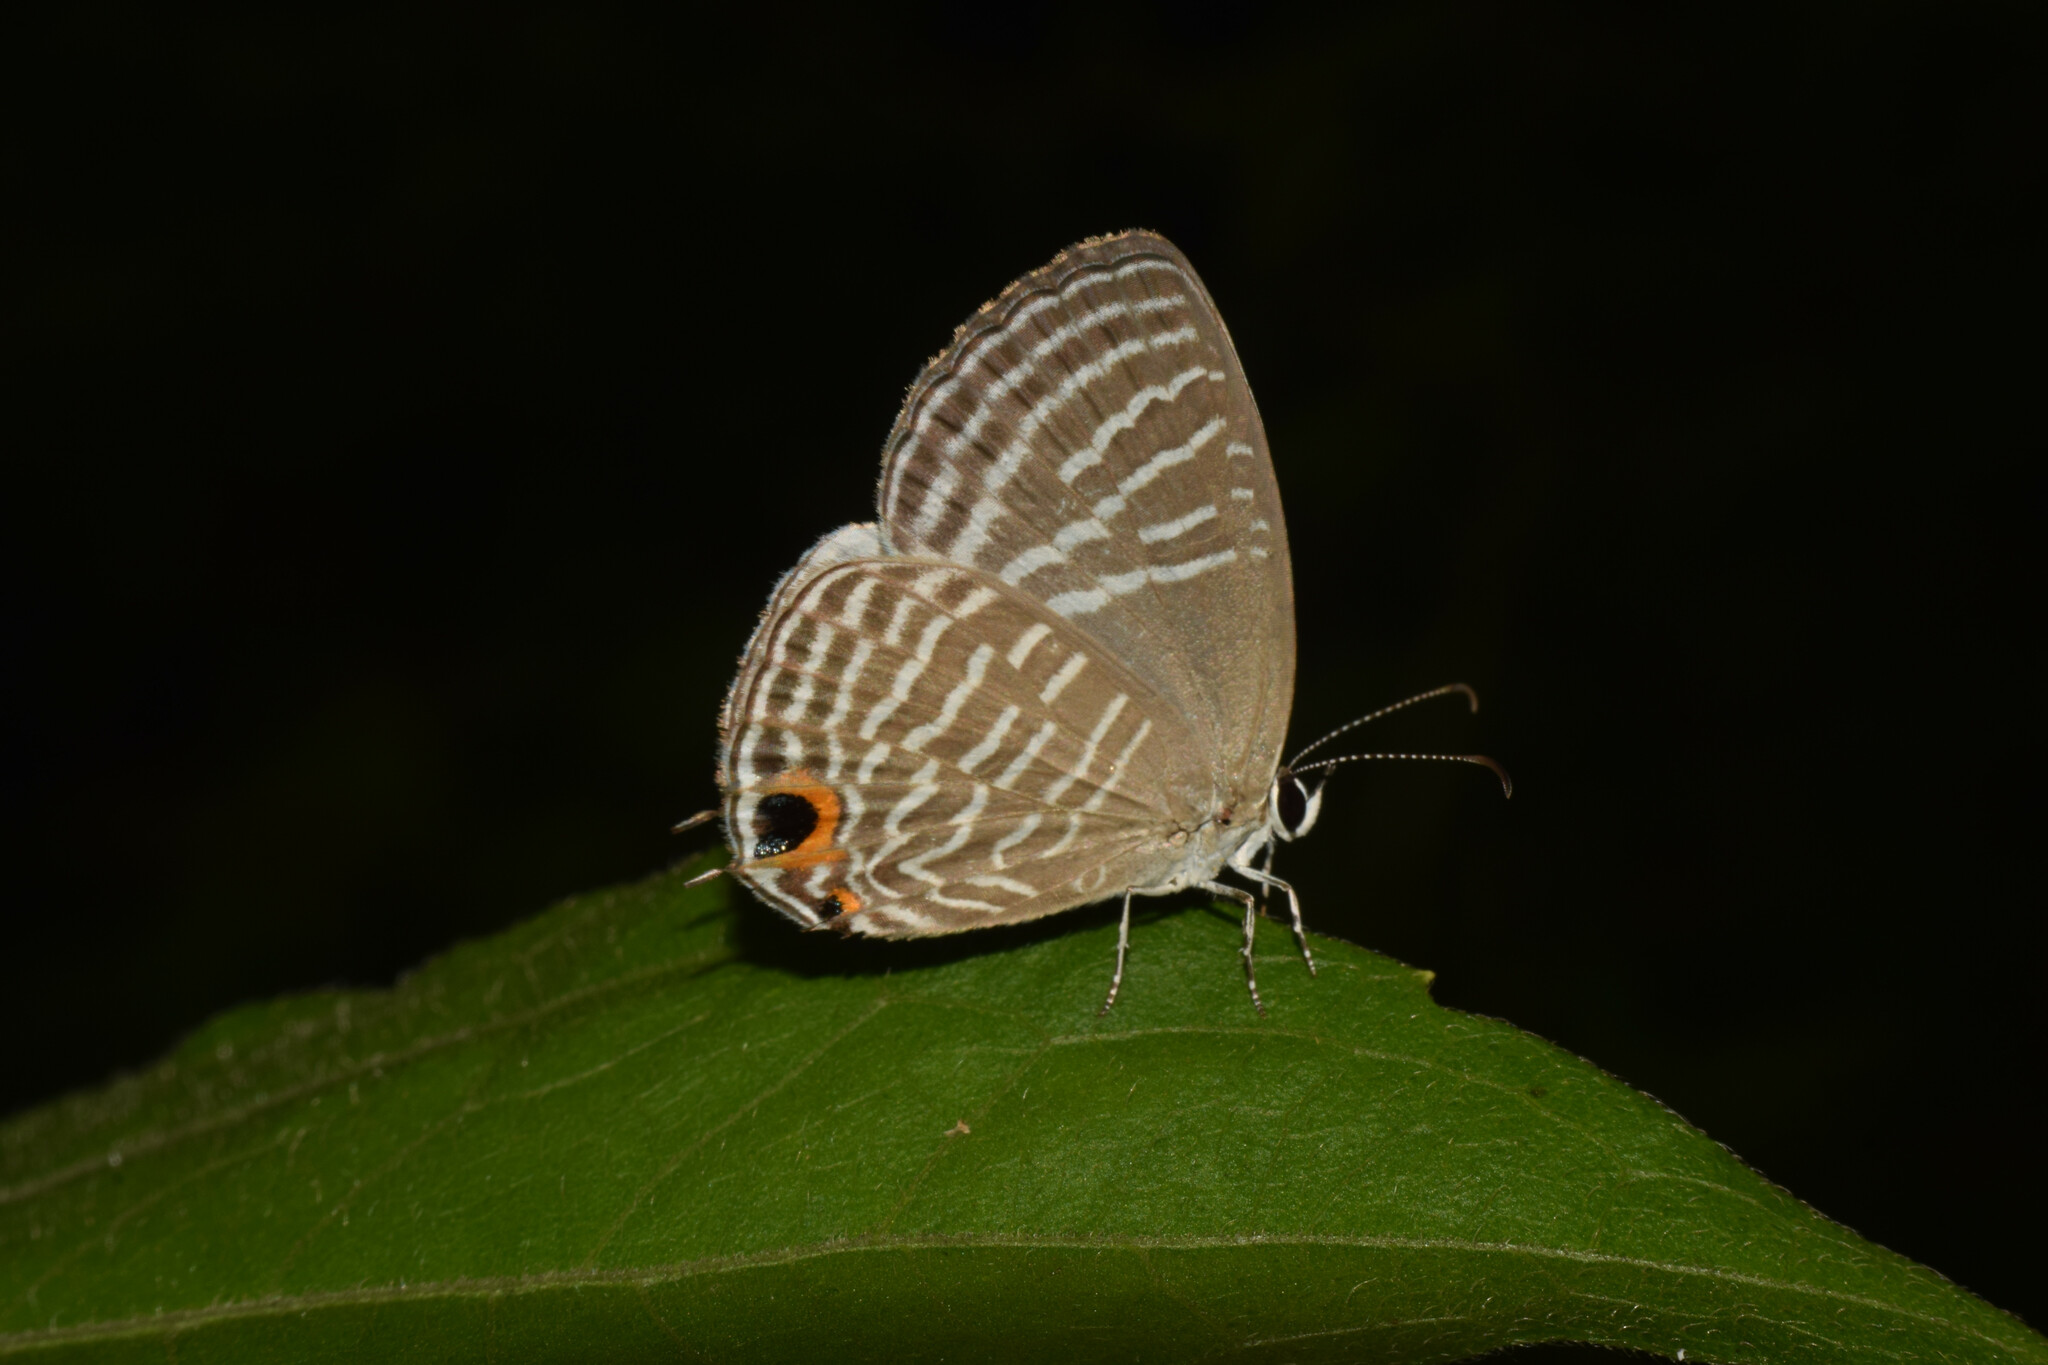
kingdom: Animalia
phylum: Arthropoda
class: Insecta
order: Lepidoptera
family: Lycaenidae
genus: Jamides
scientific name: Jamides celeno
